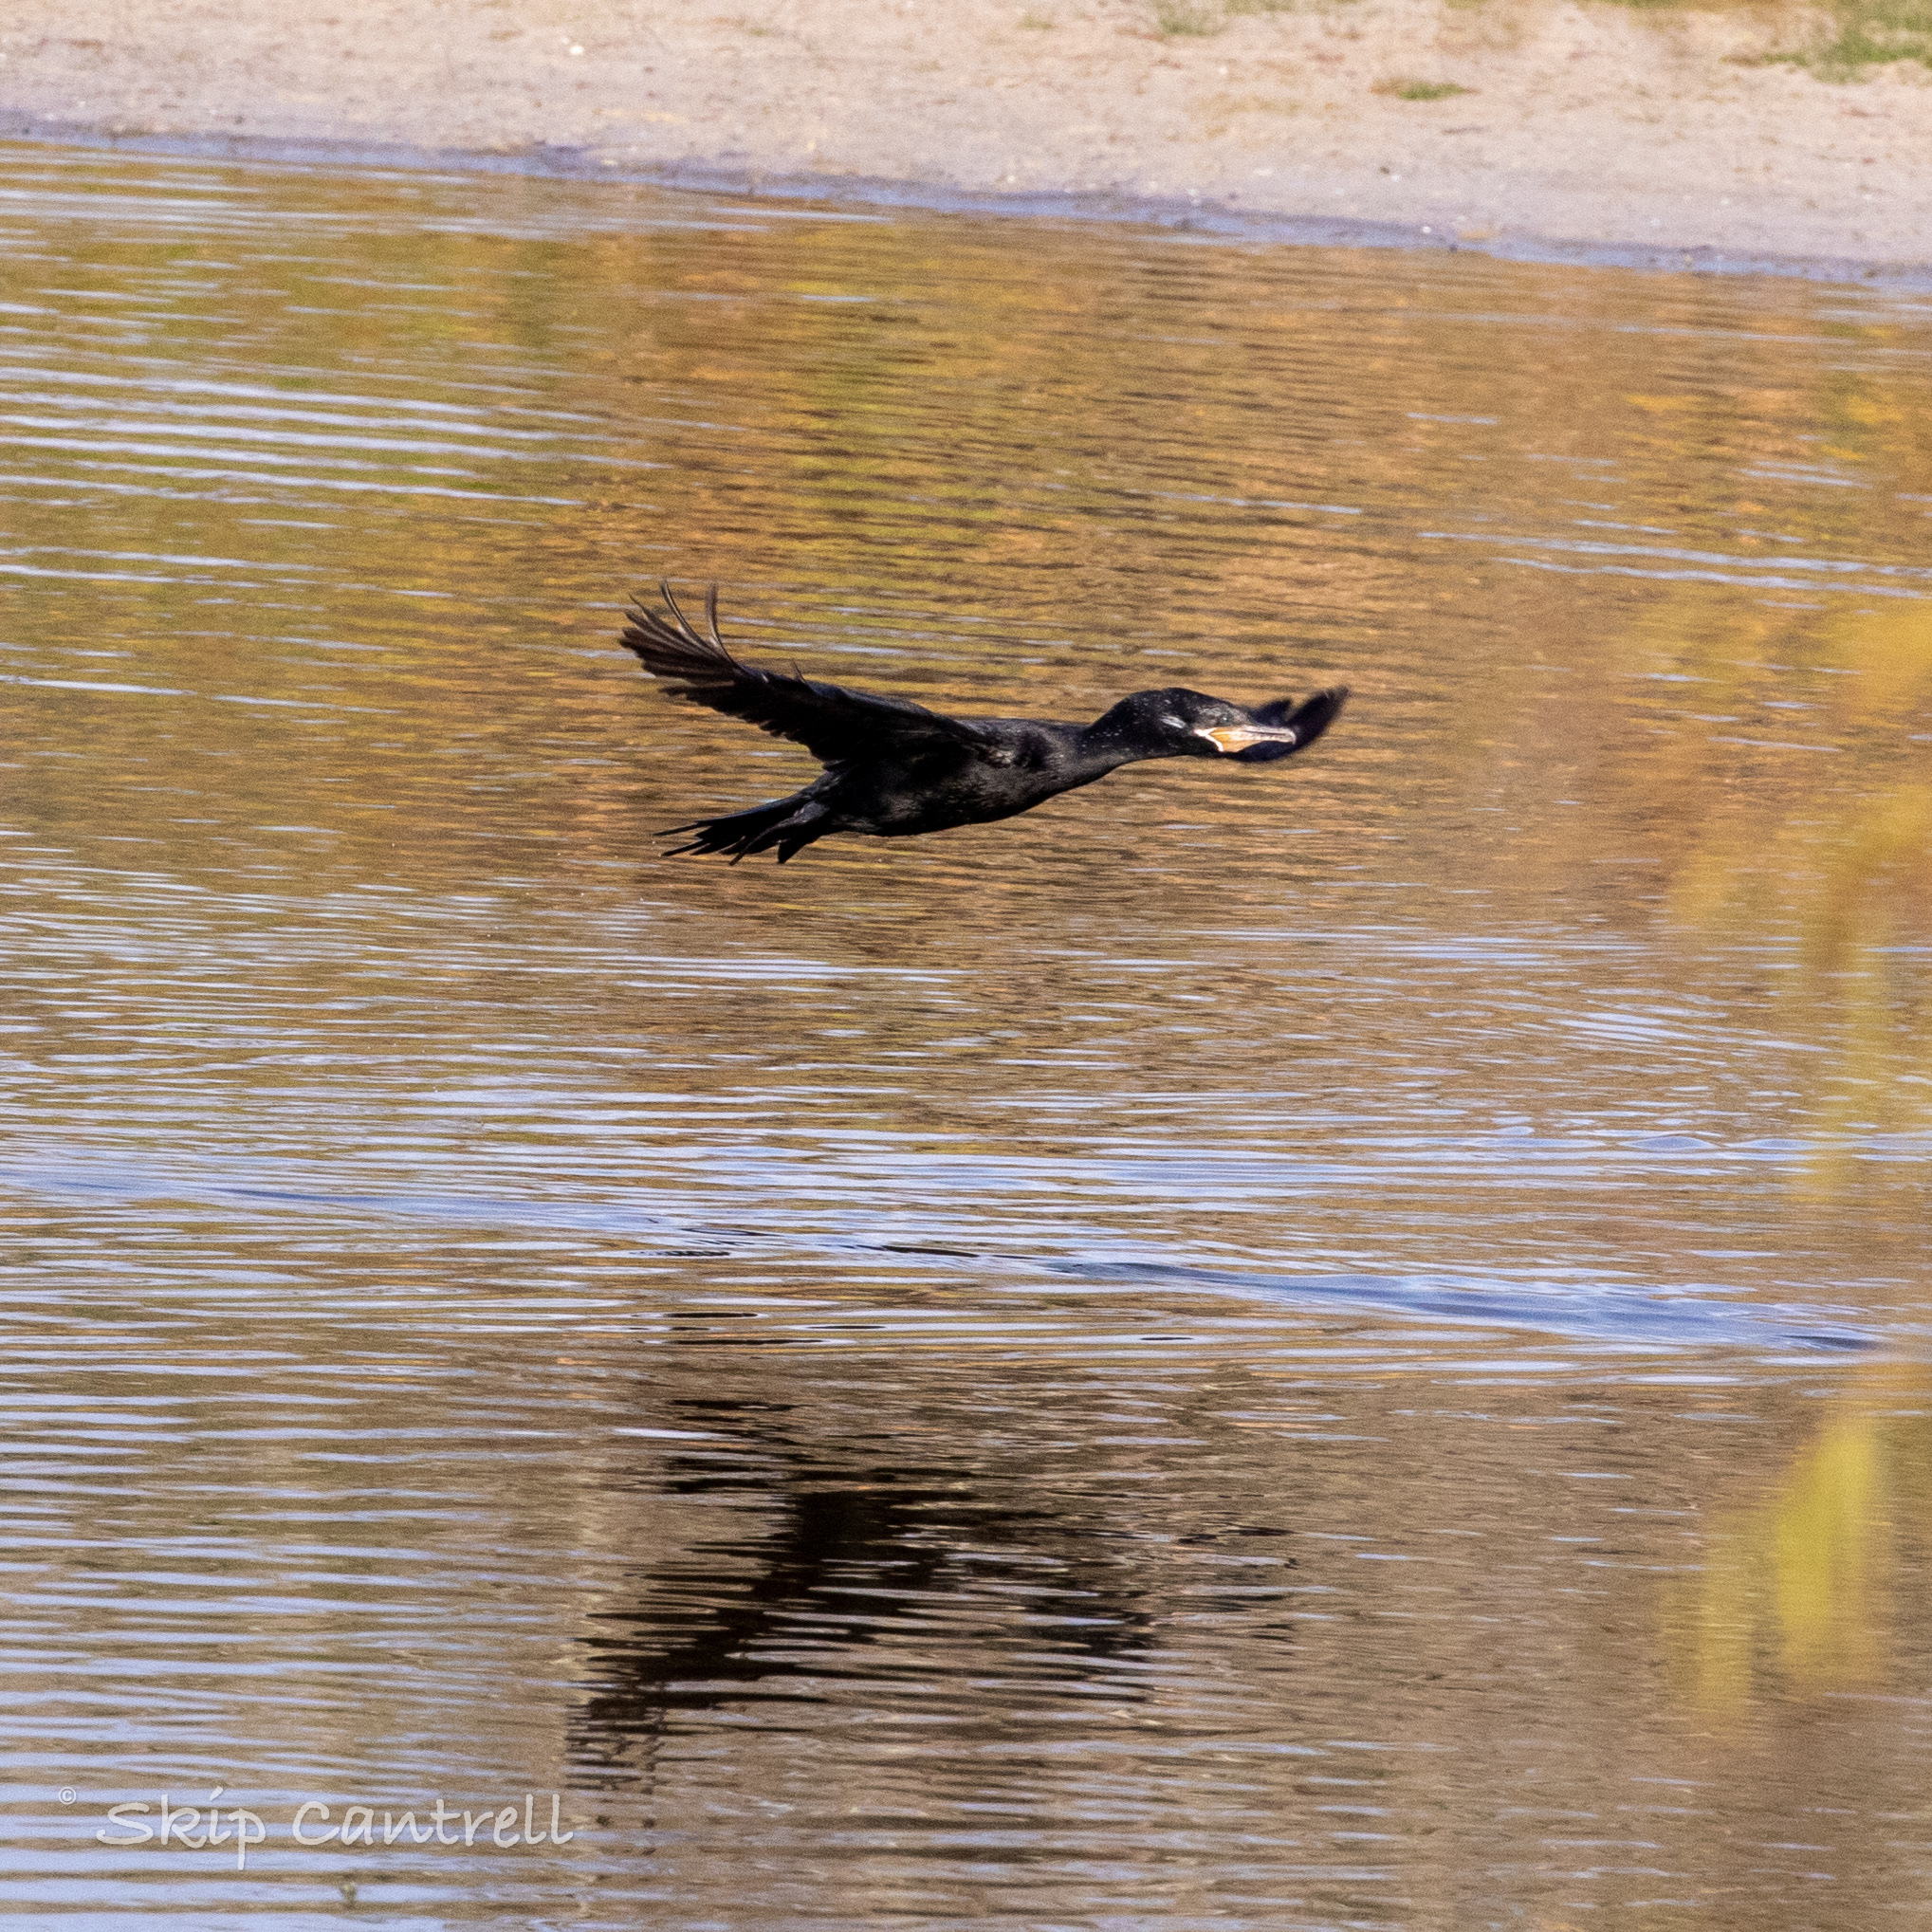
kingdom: Animalia
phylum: Chordata
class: Aves
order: Suliformes
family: Phalacrocoracidae
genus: Phalacrocorax
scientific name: Phalacrocorax brasilianus
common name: Neotropic cormorant
